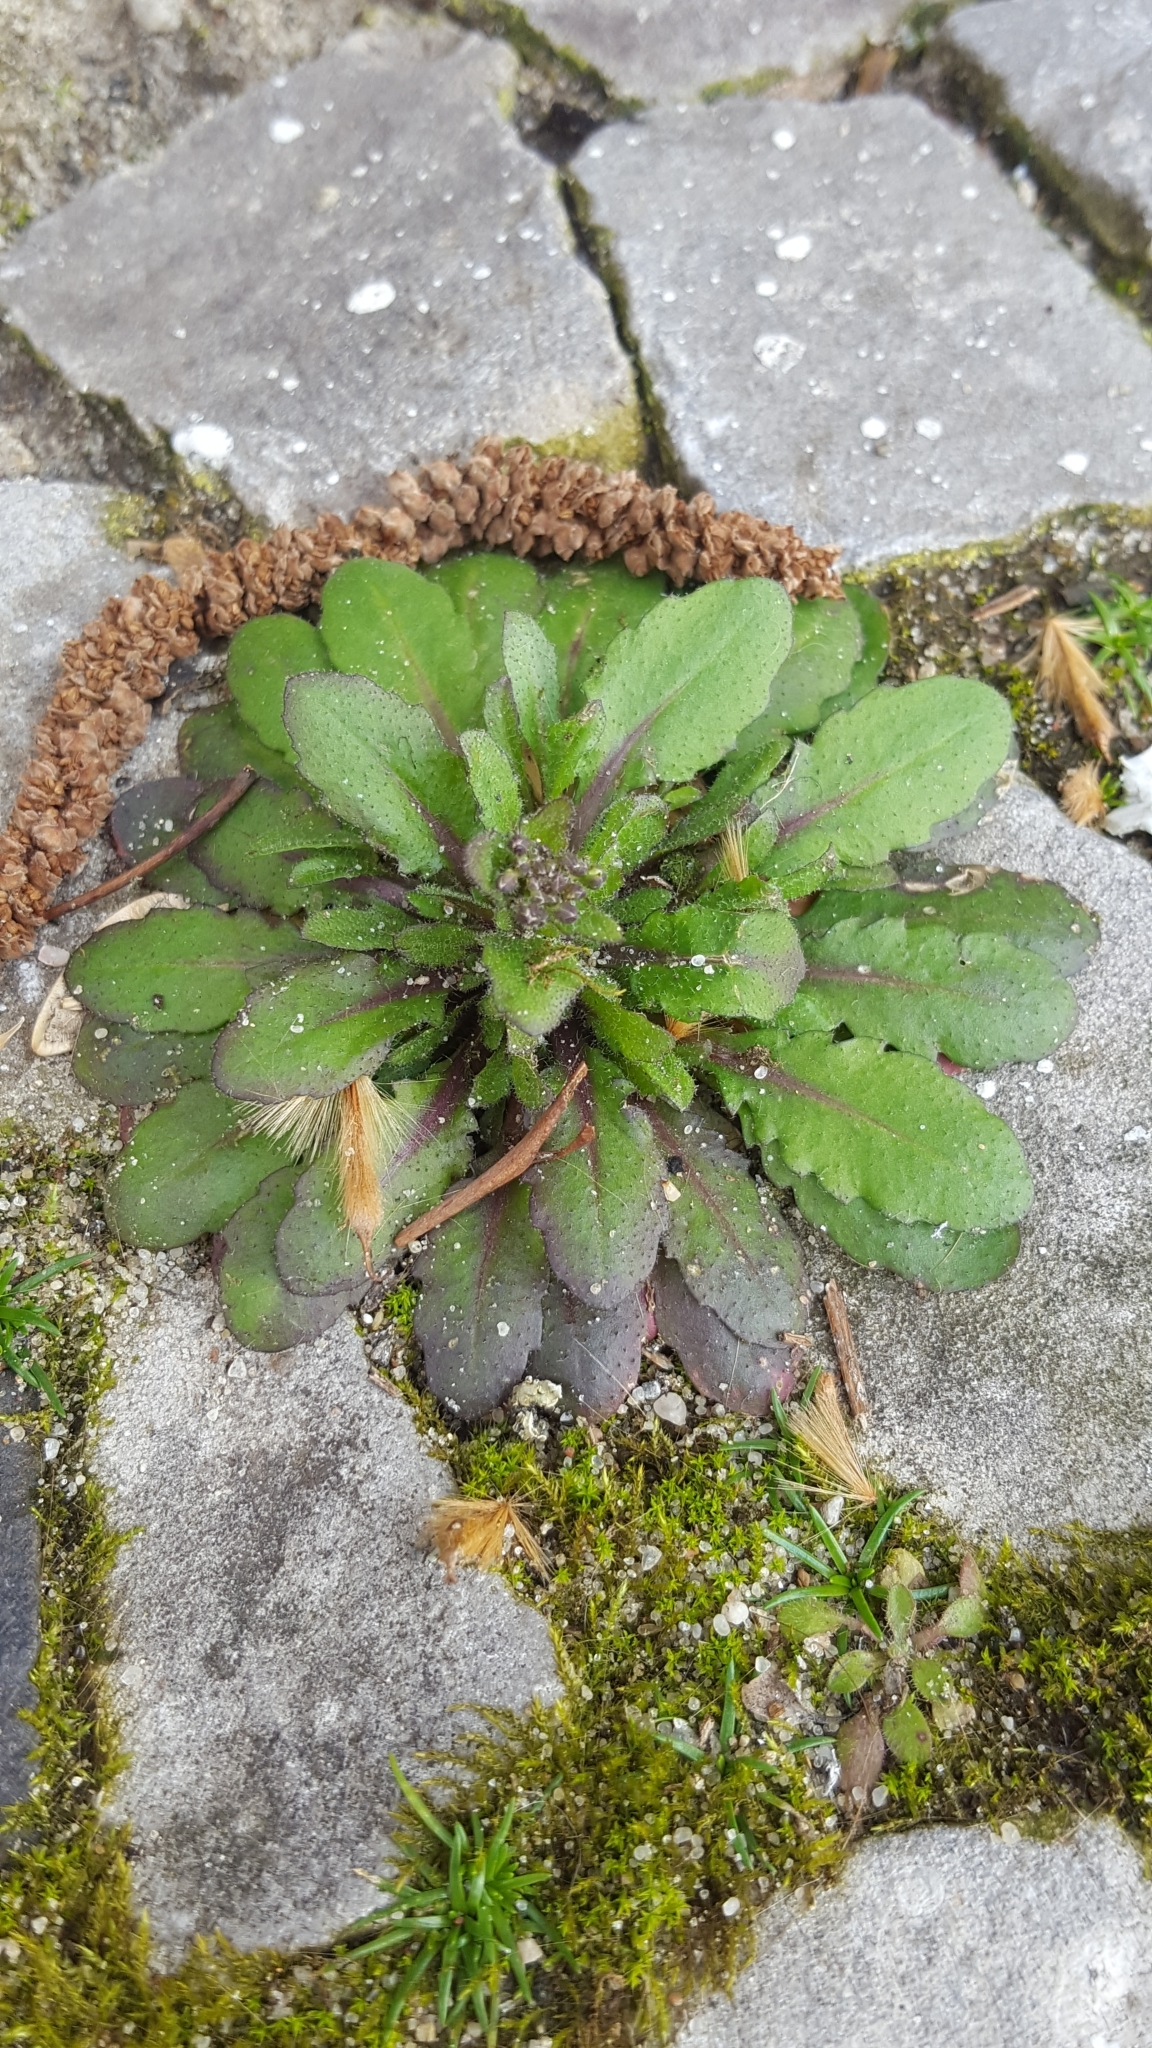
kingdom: Plantae
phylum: Tracheophyta
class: Magnoliopsida
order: Brassicales
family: Brassicaceae
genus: Arabidopsis
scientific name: Arabidopsis thaliana
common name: Thale cress
